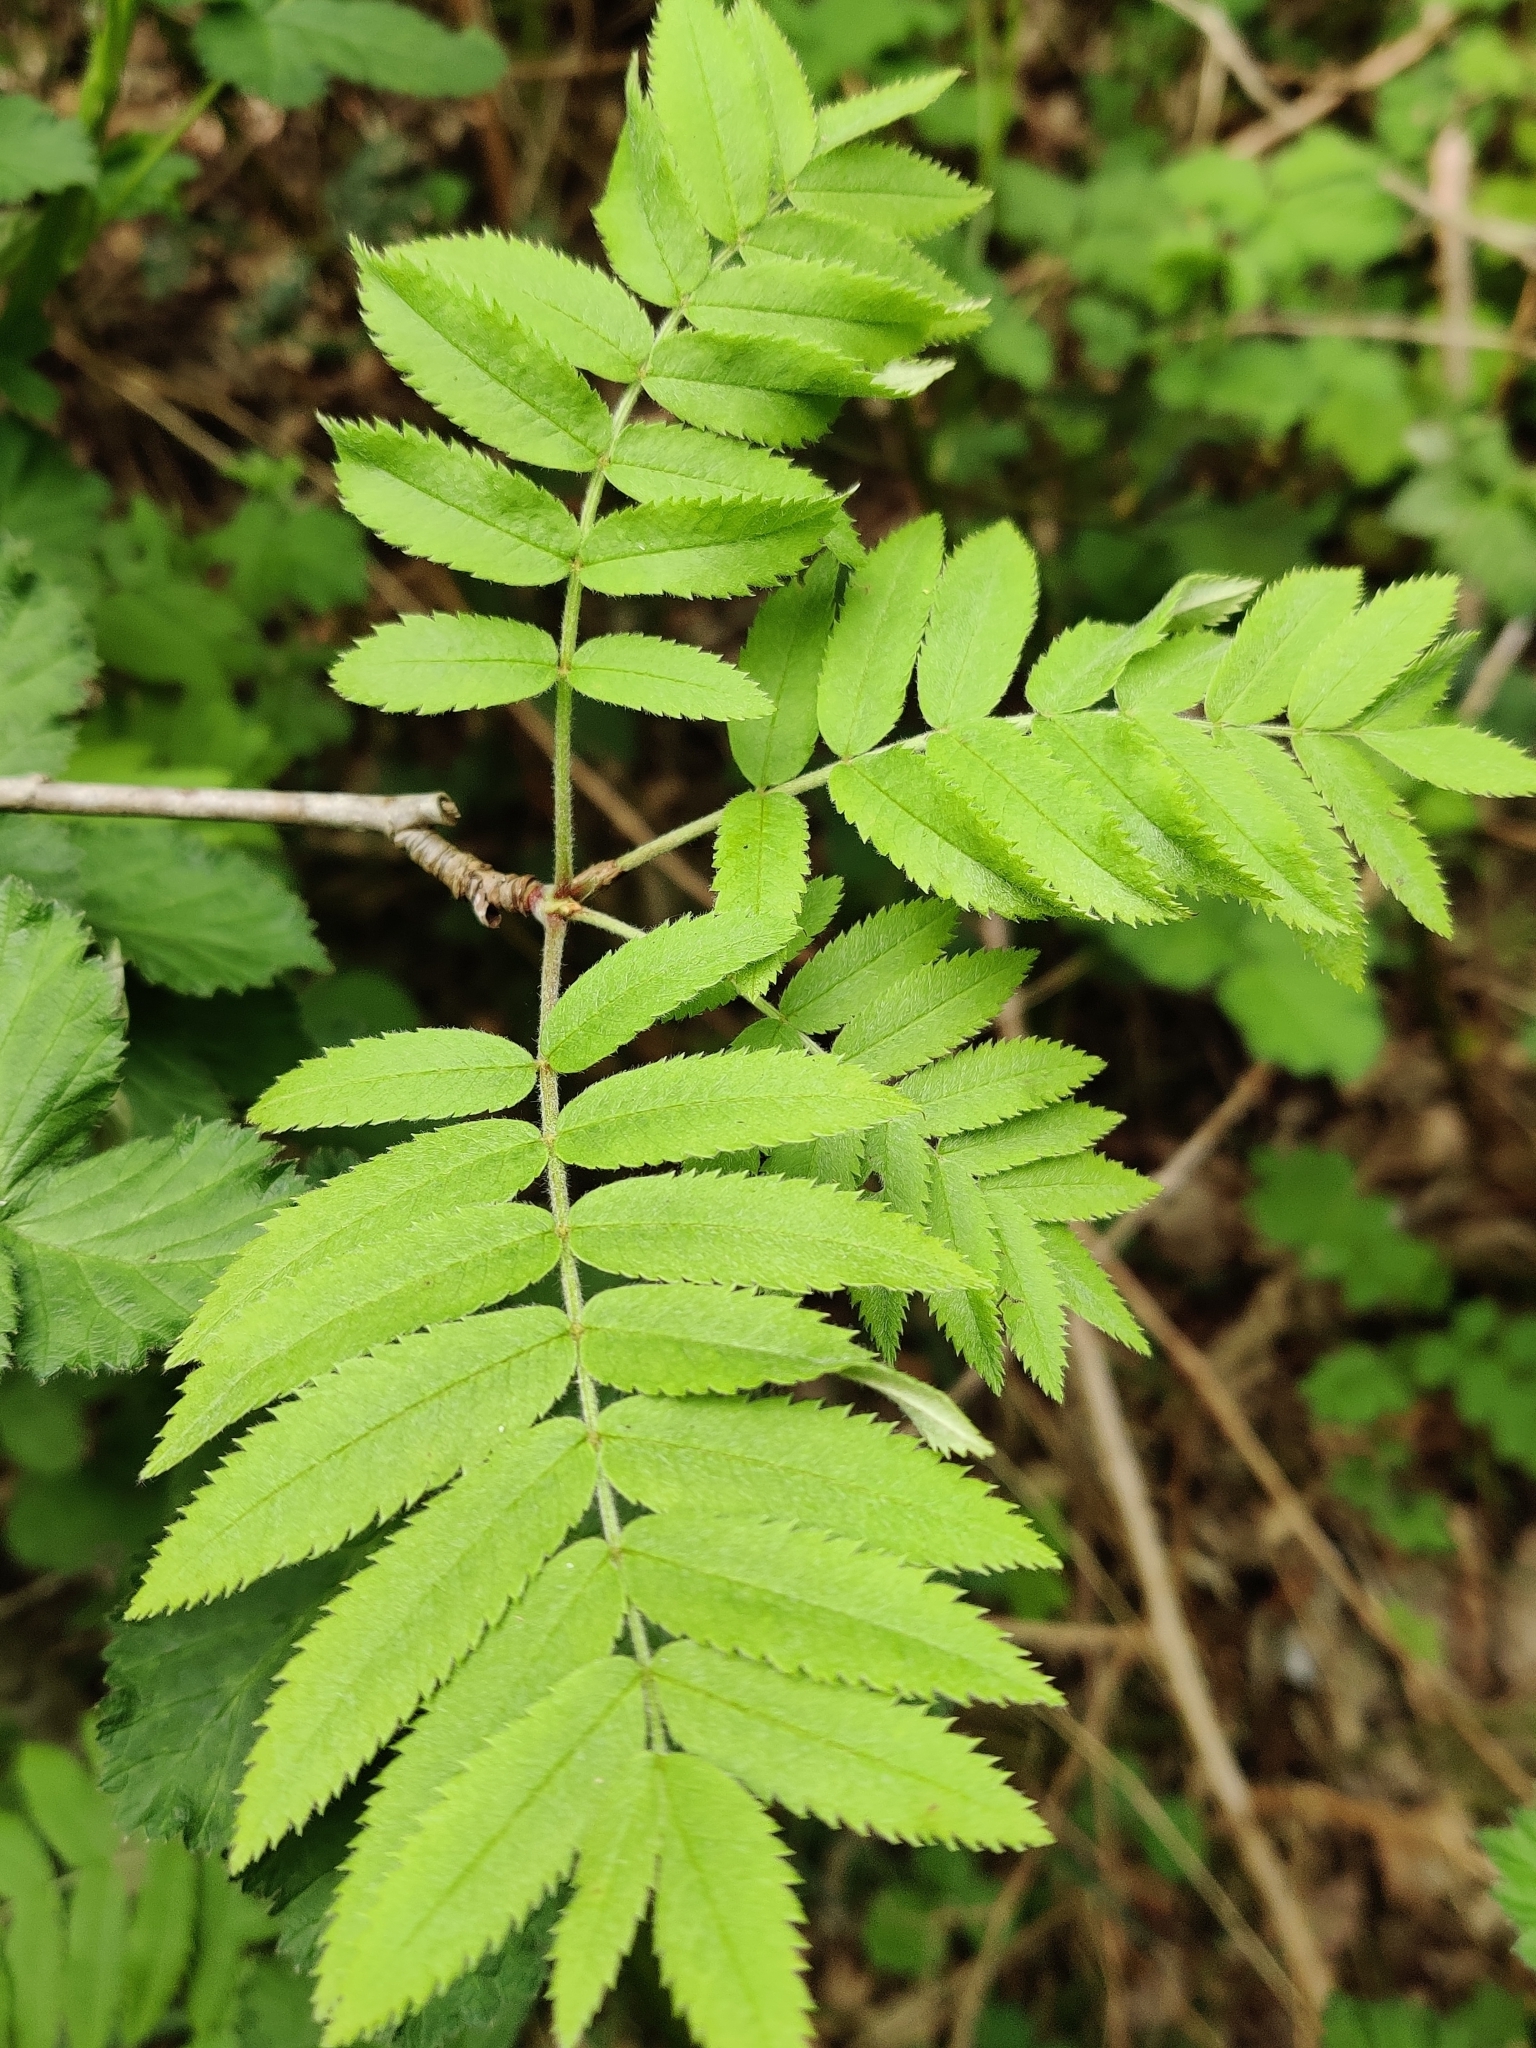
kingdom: Plantae
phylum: Tracheophyta
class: Magnoliopsida
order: Rosales
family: Rosaceae
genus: Sorbus
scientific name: Sorbus aucuparia
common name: Rowan
